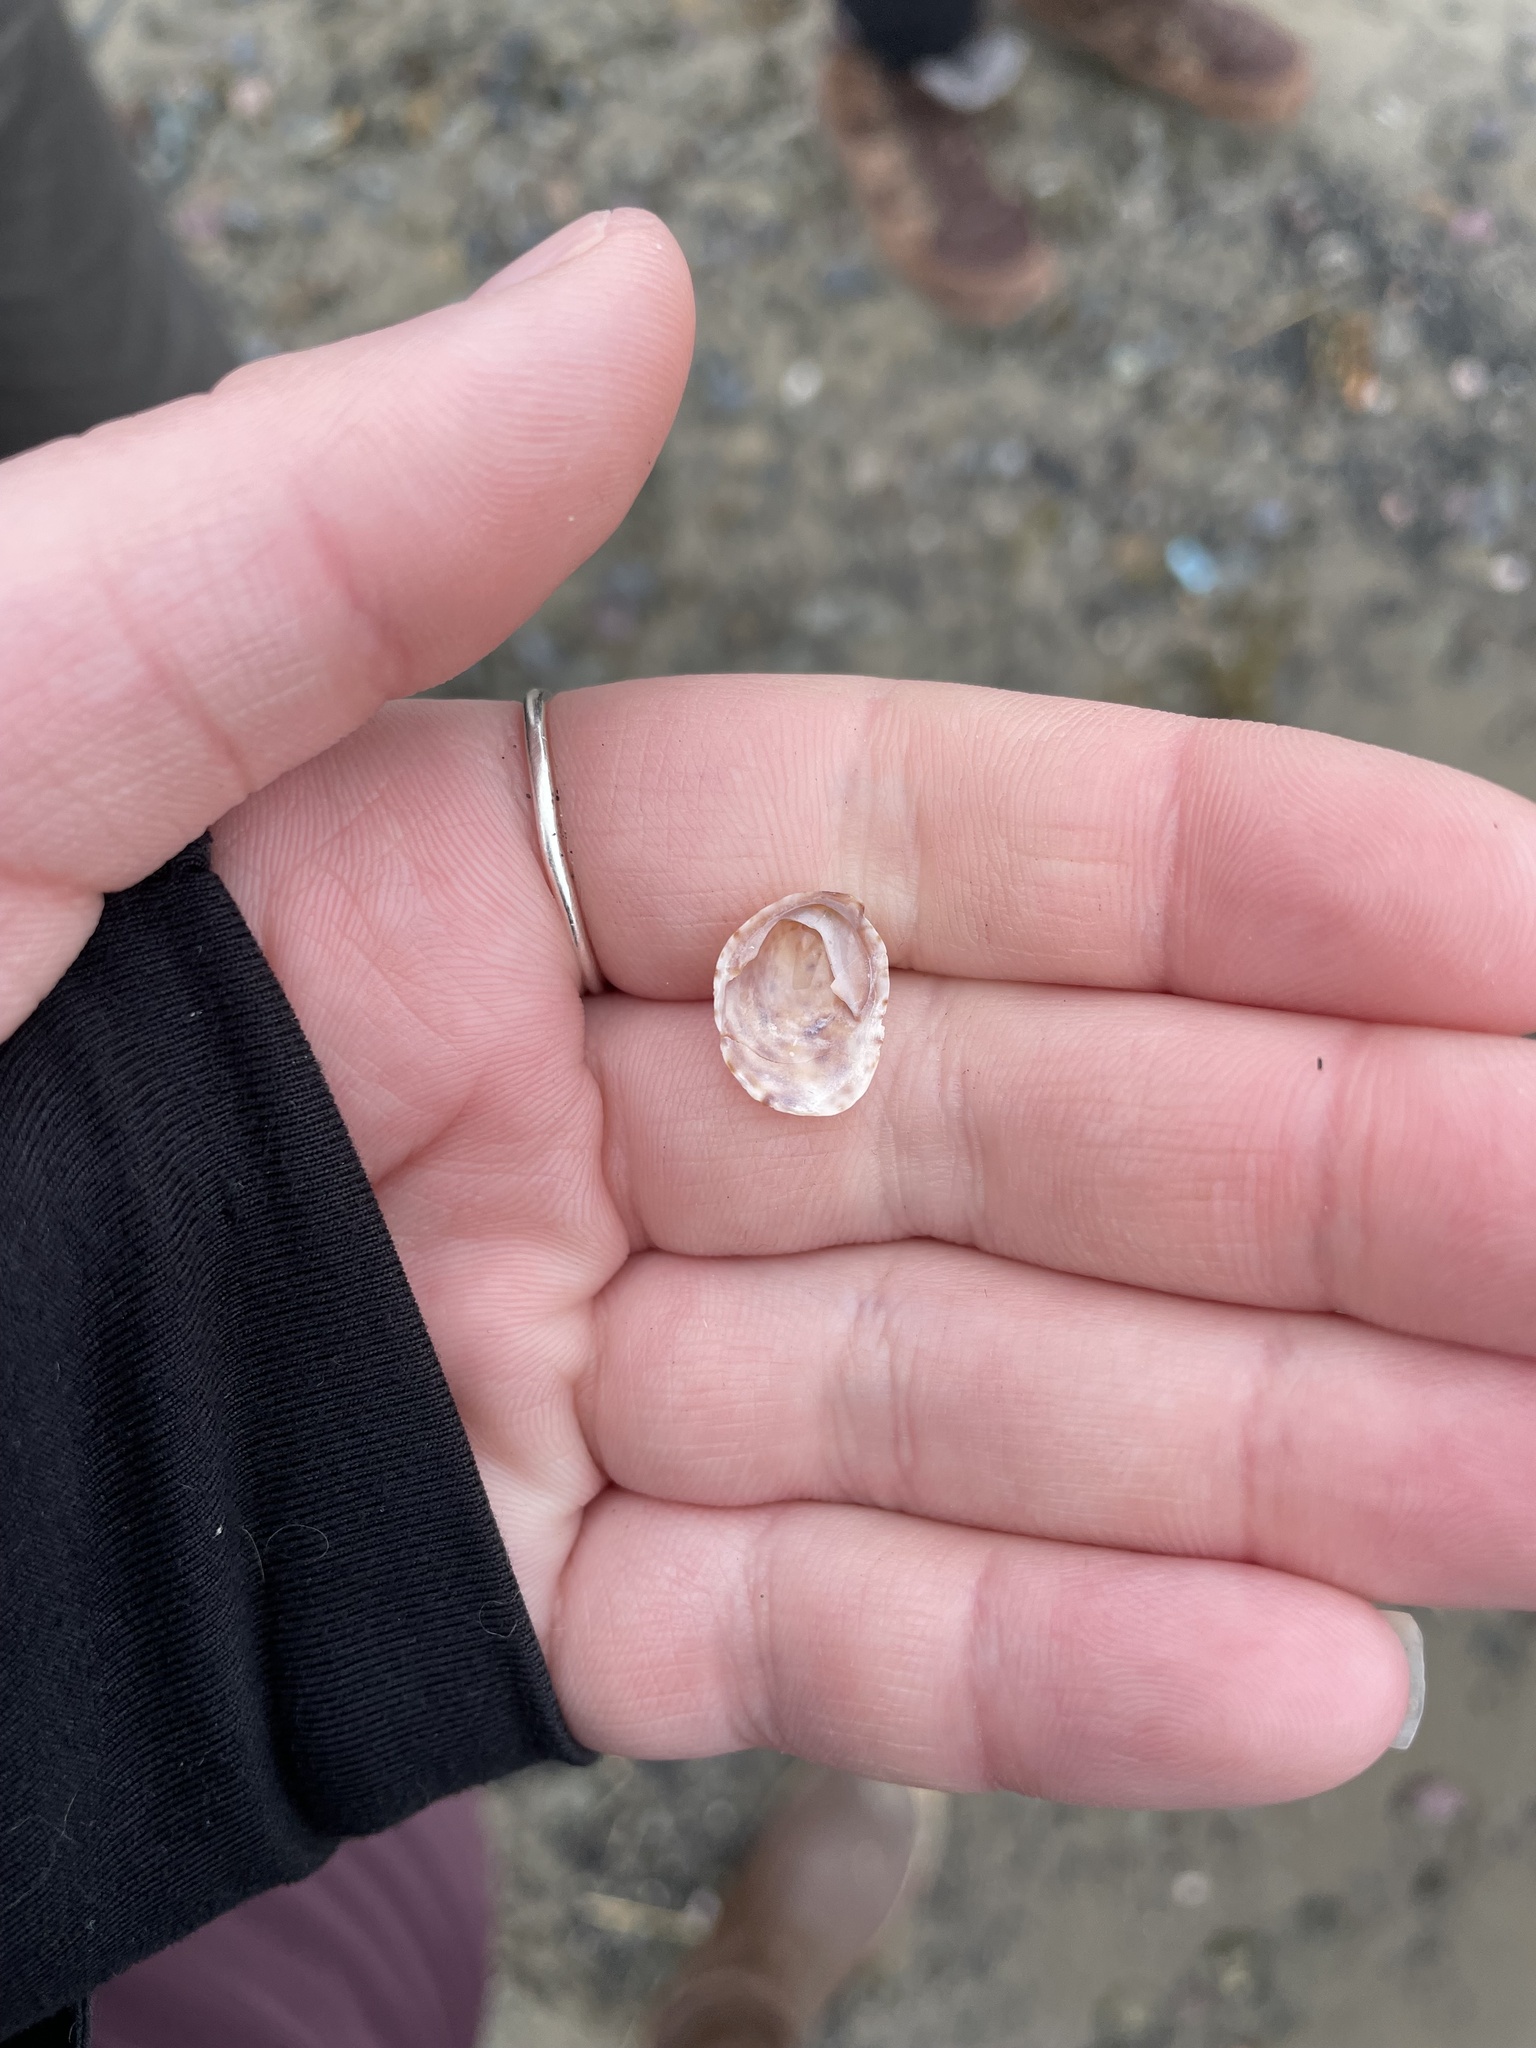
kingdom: Animalia
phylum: Mollusca
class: Gastropoda
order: Littorinimorpha
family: Calyptraeidae
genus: Crepidula
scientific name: Crepidula fornicata
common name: Slipper limpet
